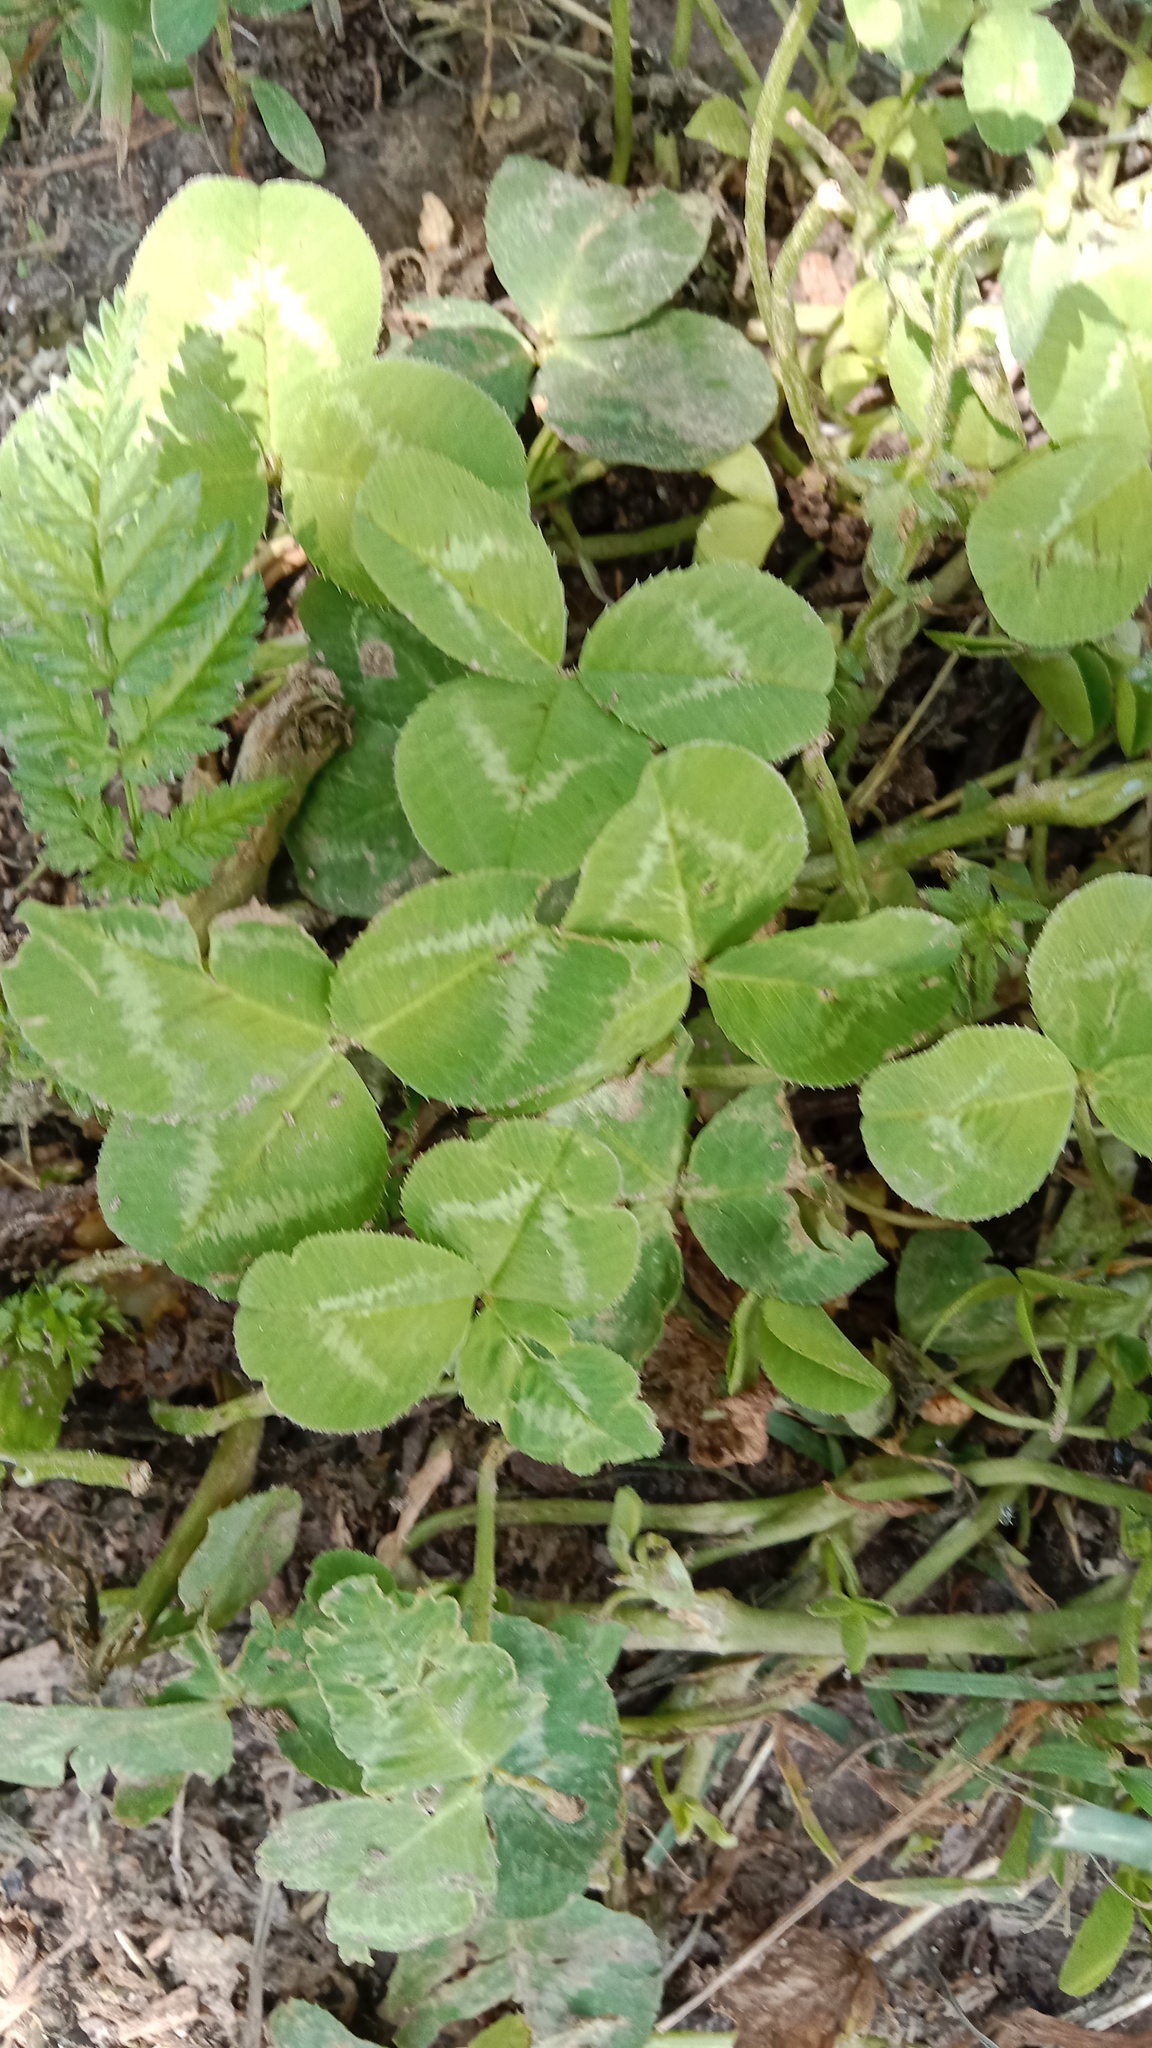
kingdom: Plantae
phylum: Tracheophyta
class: Magnoliopsida
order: Fabales
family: Fabaceae
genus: Trifolium
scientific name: Trifolium repens
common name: White clover
